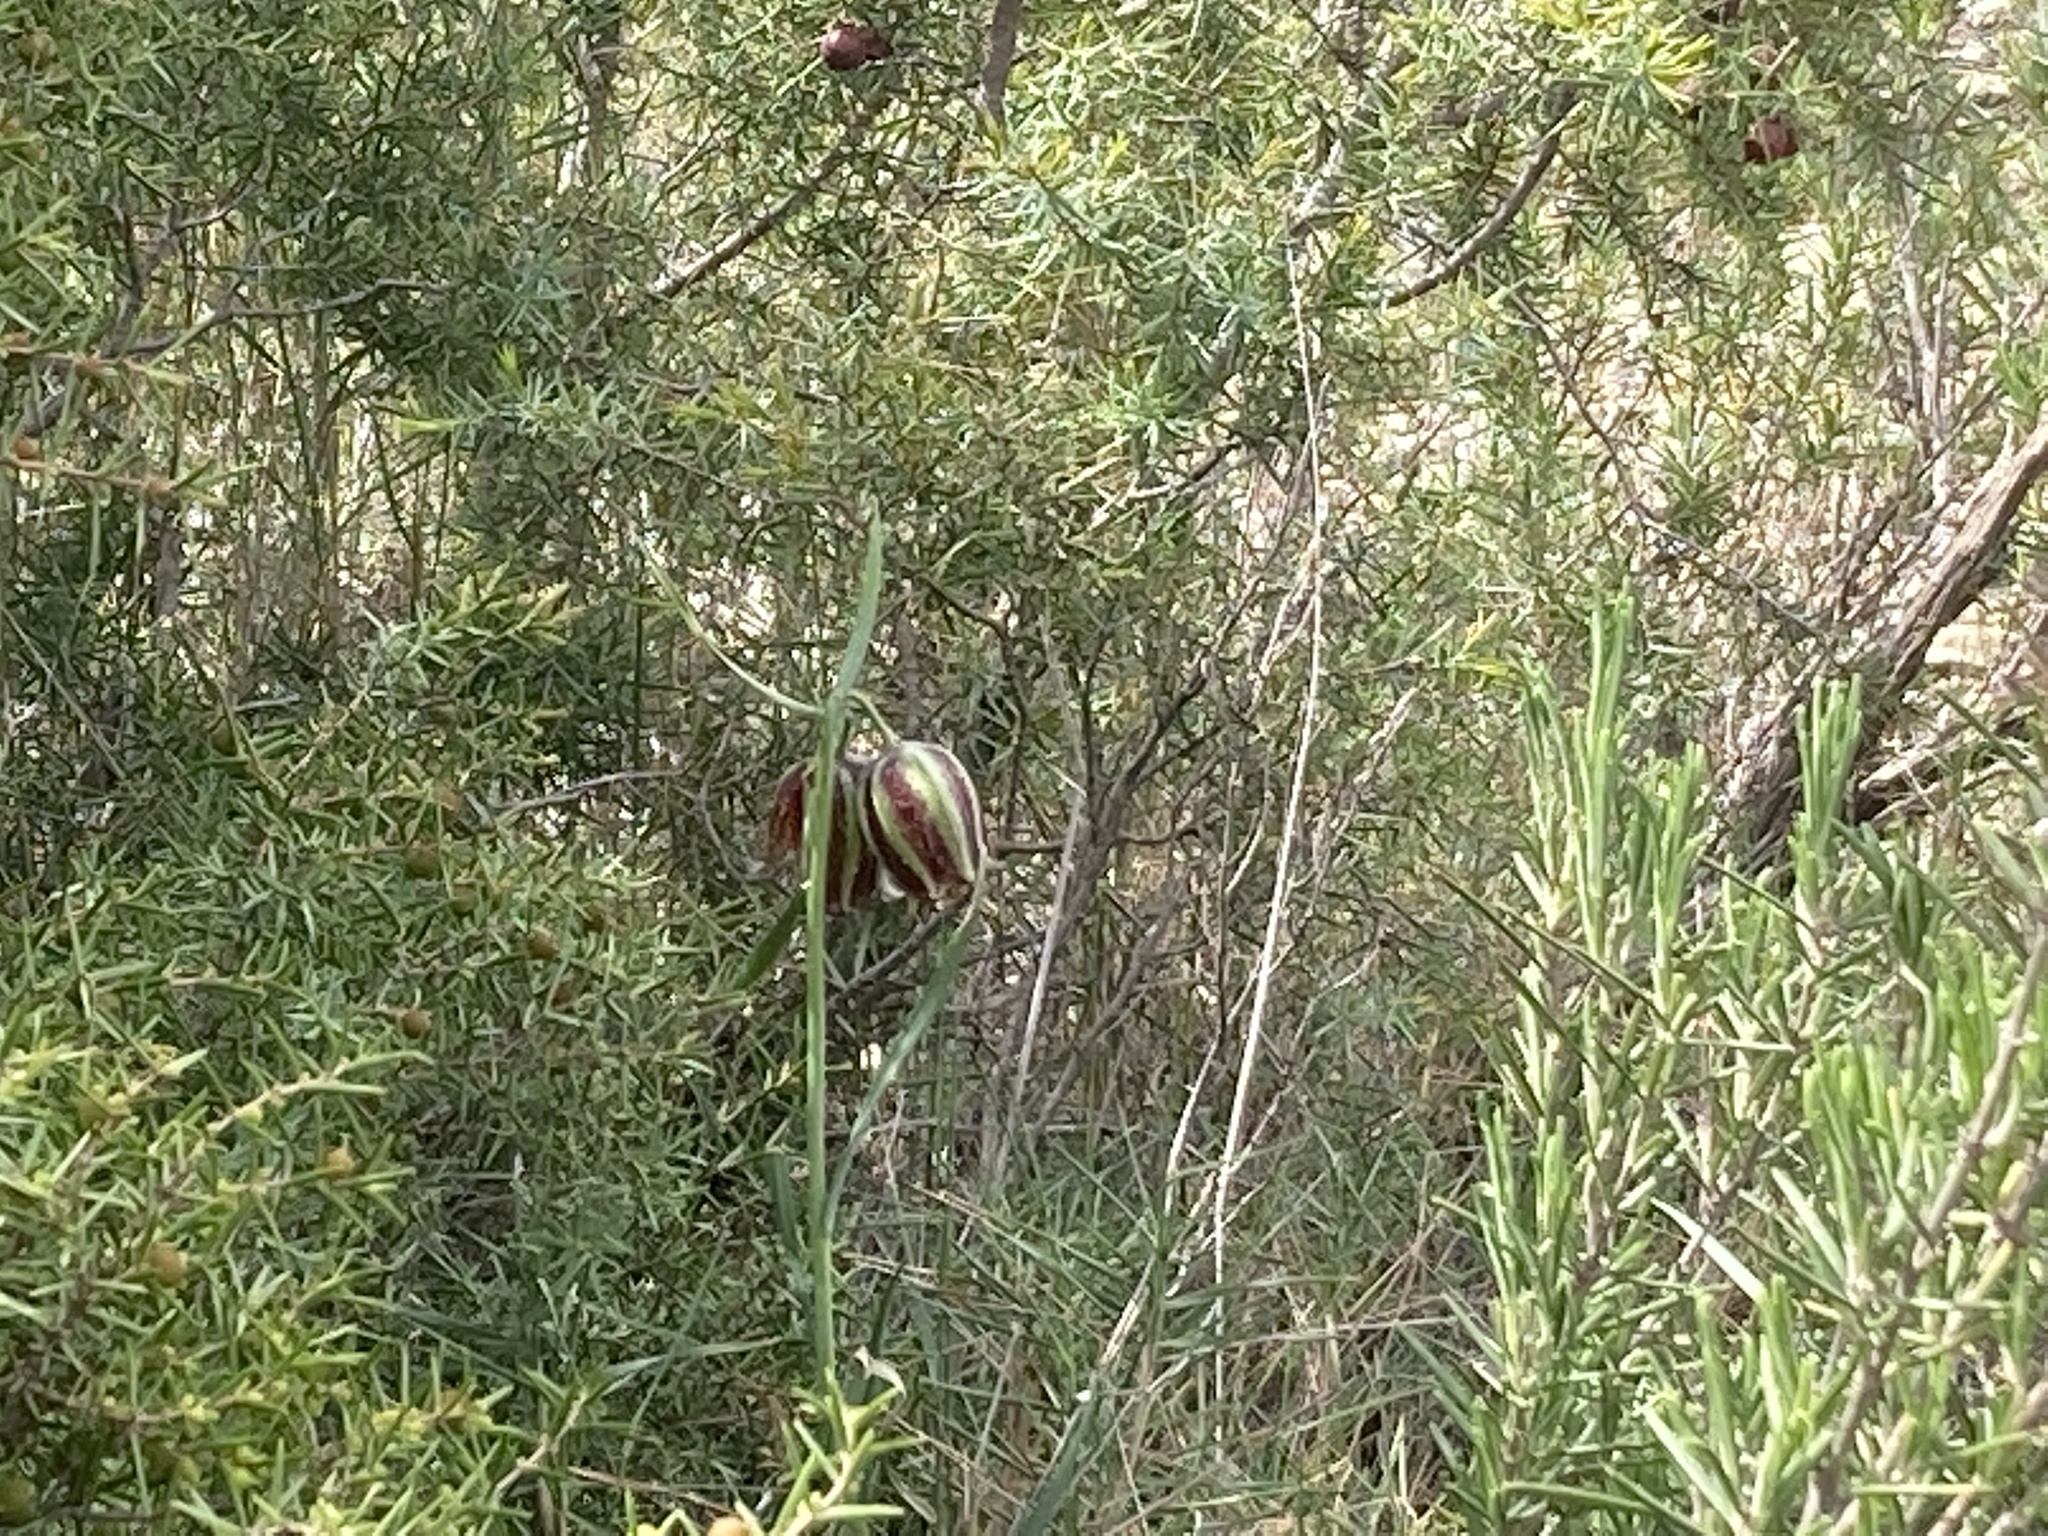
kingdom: Plantae
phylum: Tracheophyta
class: Liliopsida
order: Liliales
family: Liliaceae
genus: Fritillaria
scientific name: Fritillaria lusitanica
